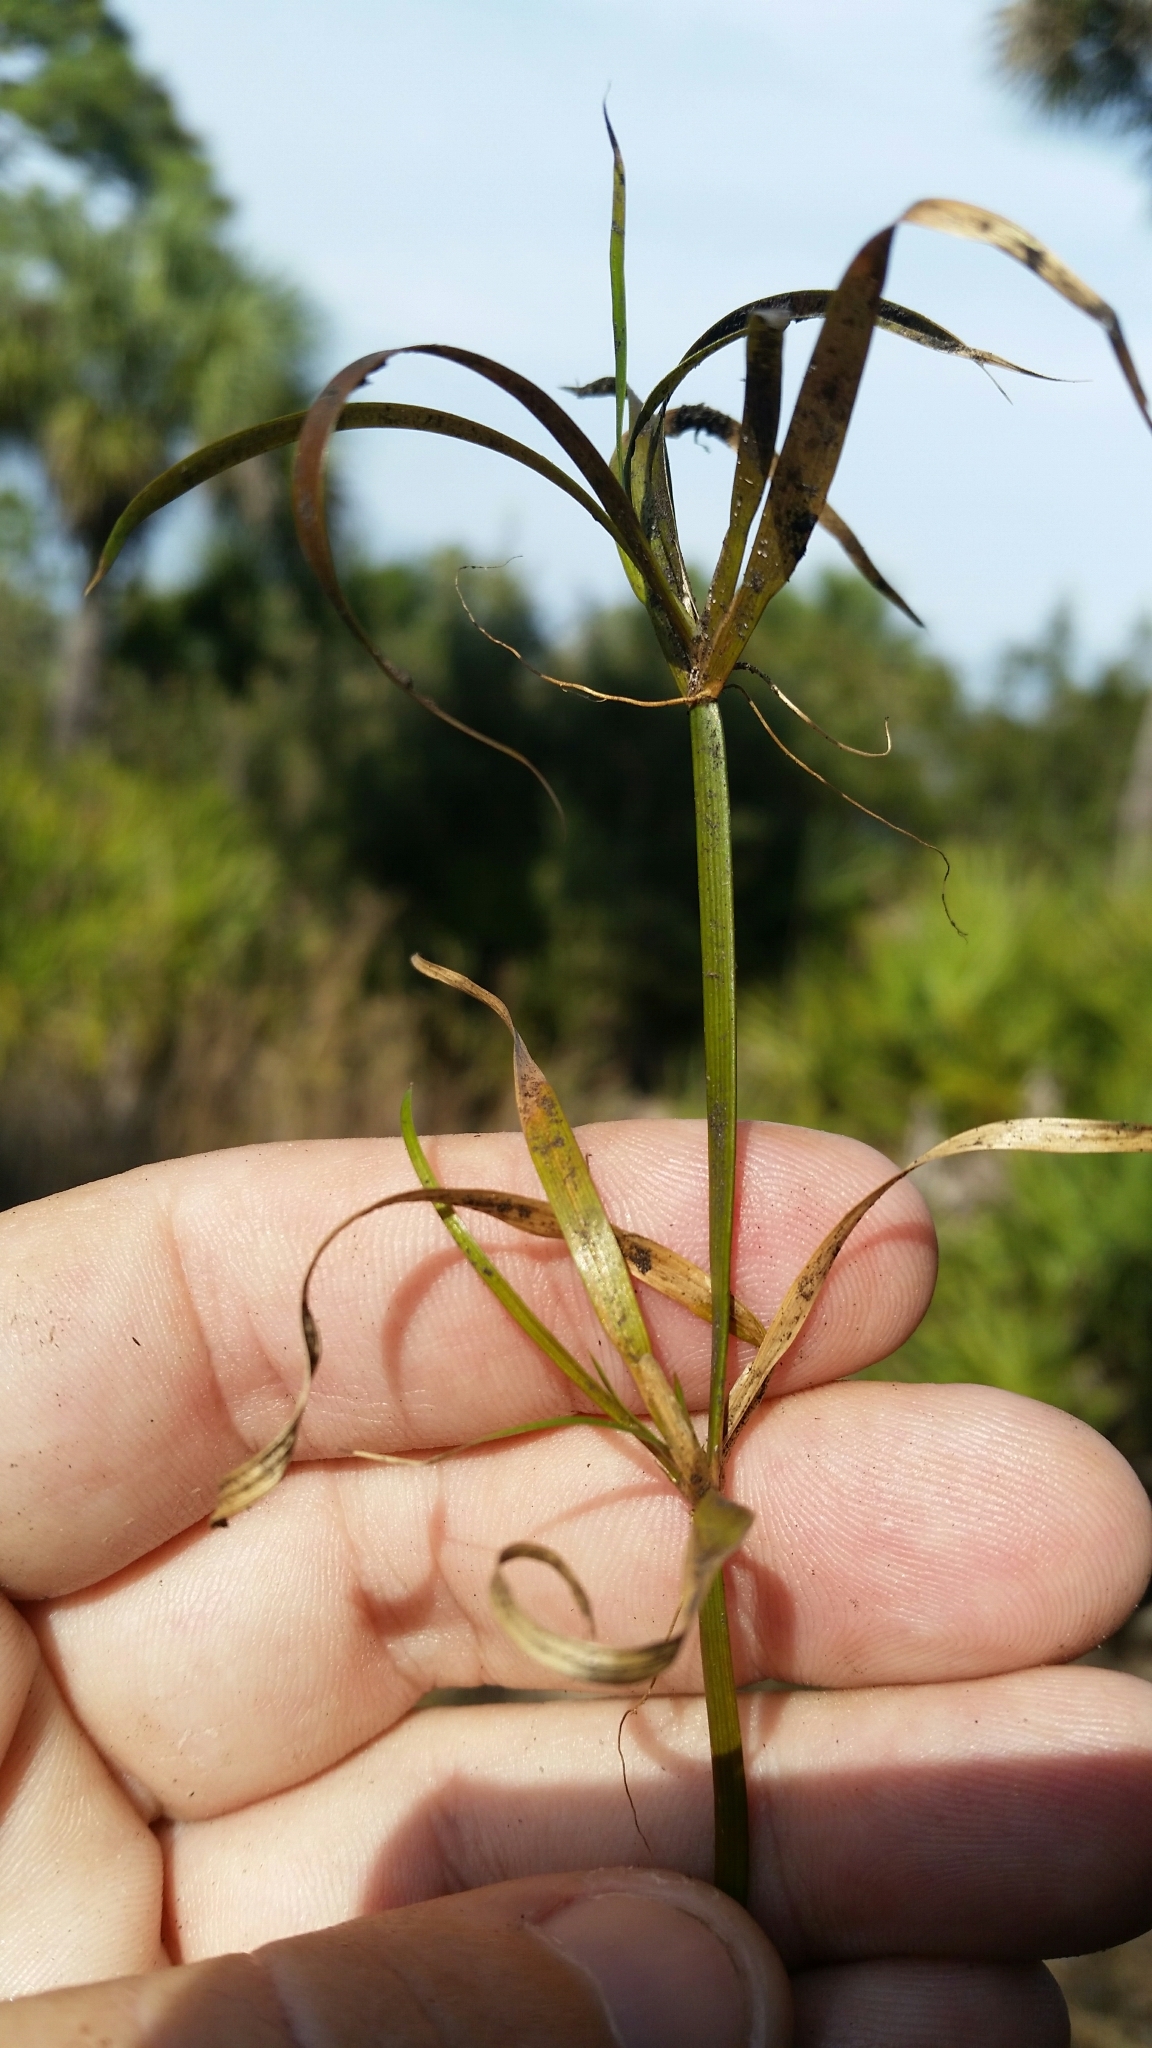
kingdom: Plantae
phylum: Tracheophyta
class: Liliopsida
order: Poales
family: Juncaceae
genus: Juncus
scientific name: Juncus repens
